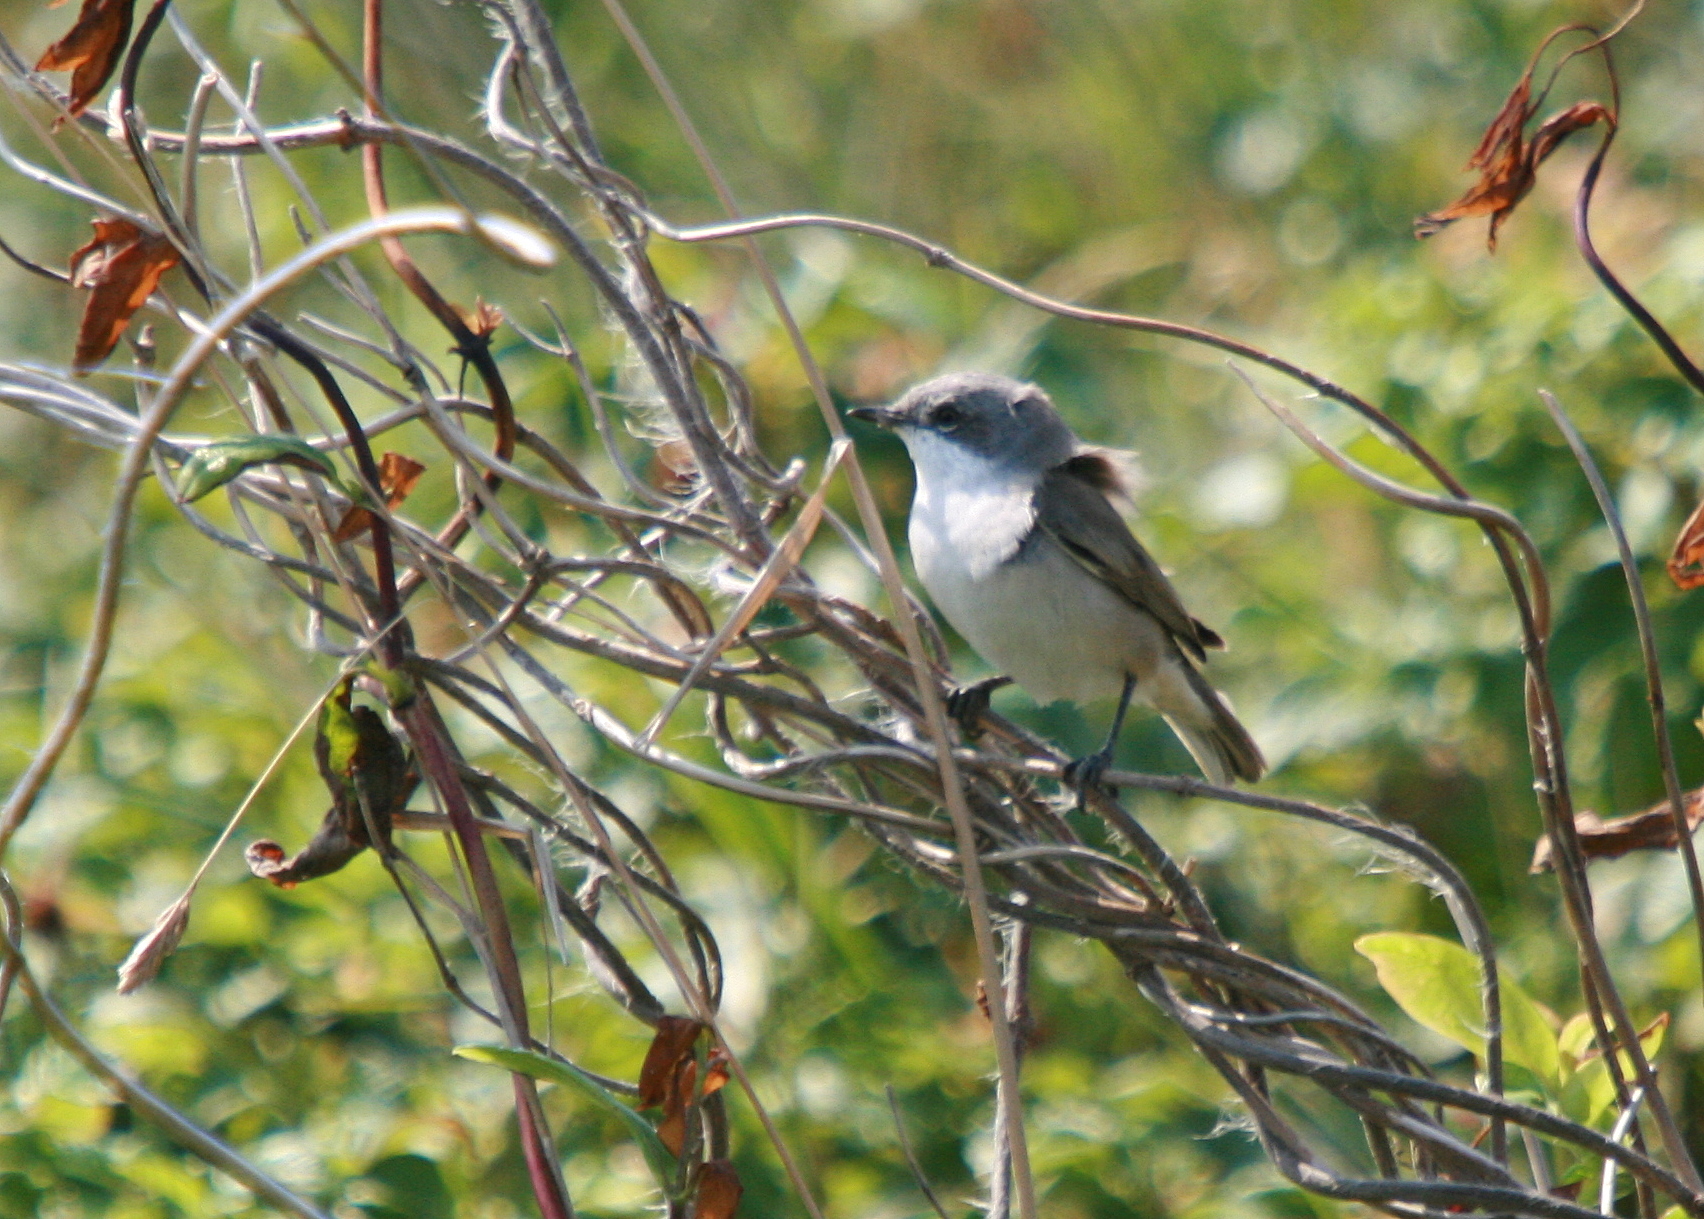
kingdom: Animalia
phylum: Chordata
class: Aves
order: Passeriformes
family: Sylviidae
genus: Sylvia
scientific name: Sylvia curruca
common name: Lesser whitethroat
